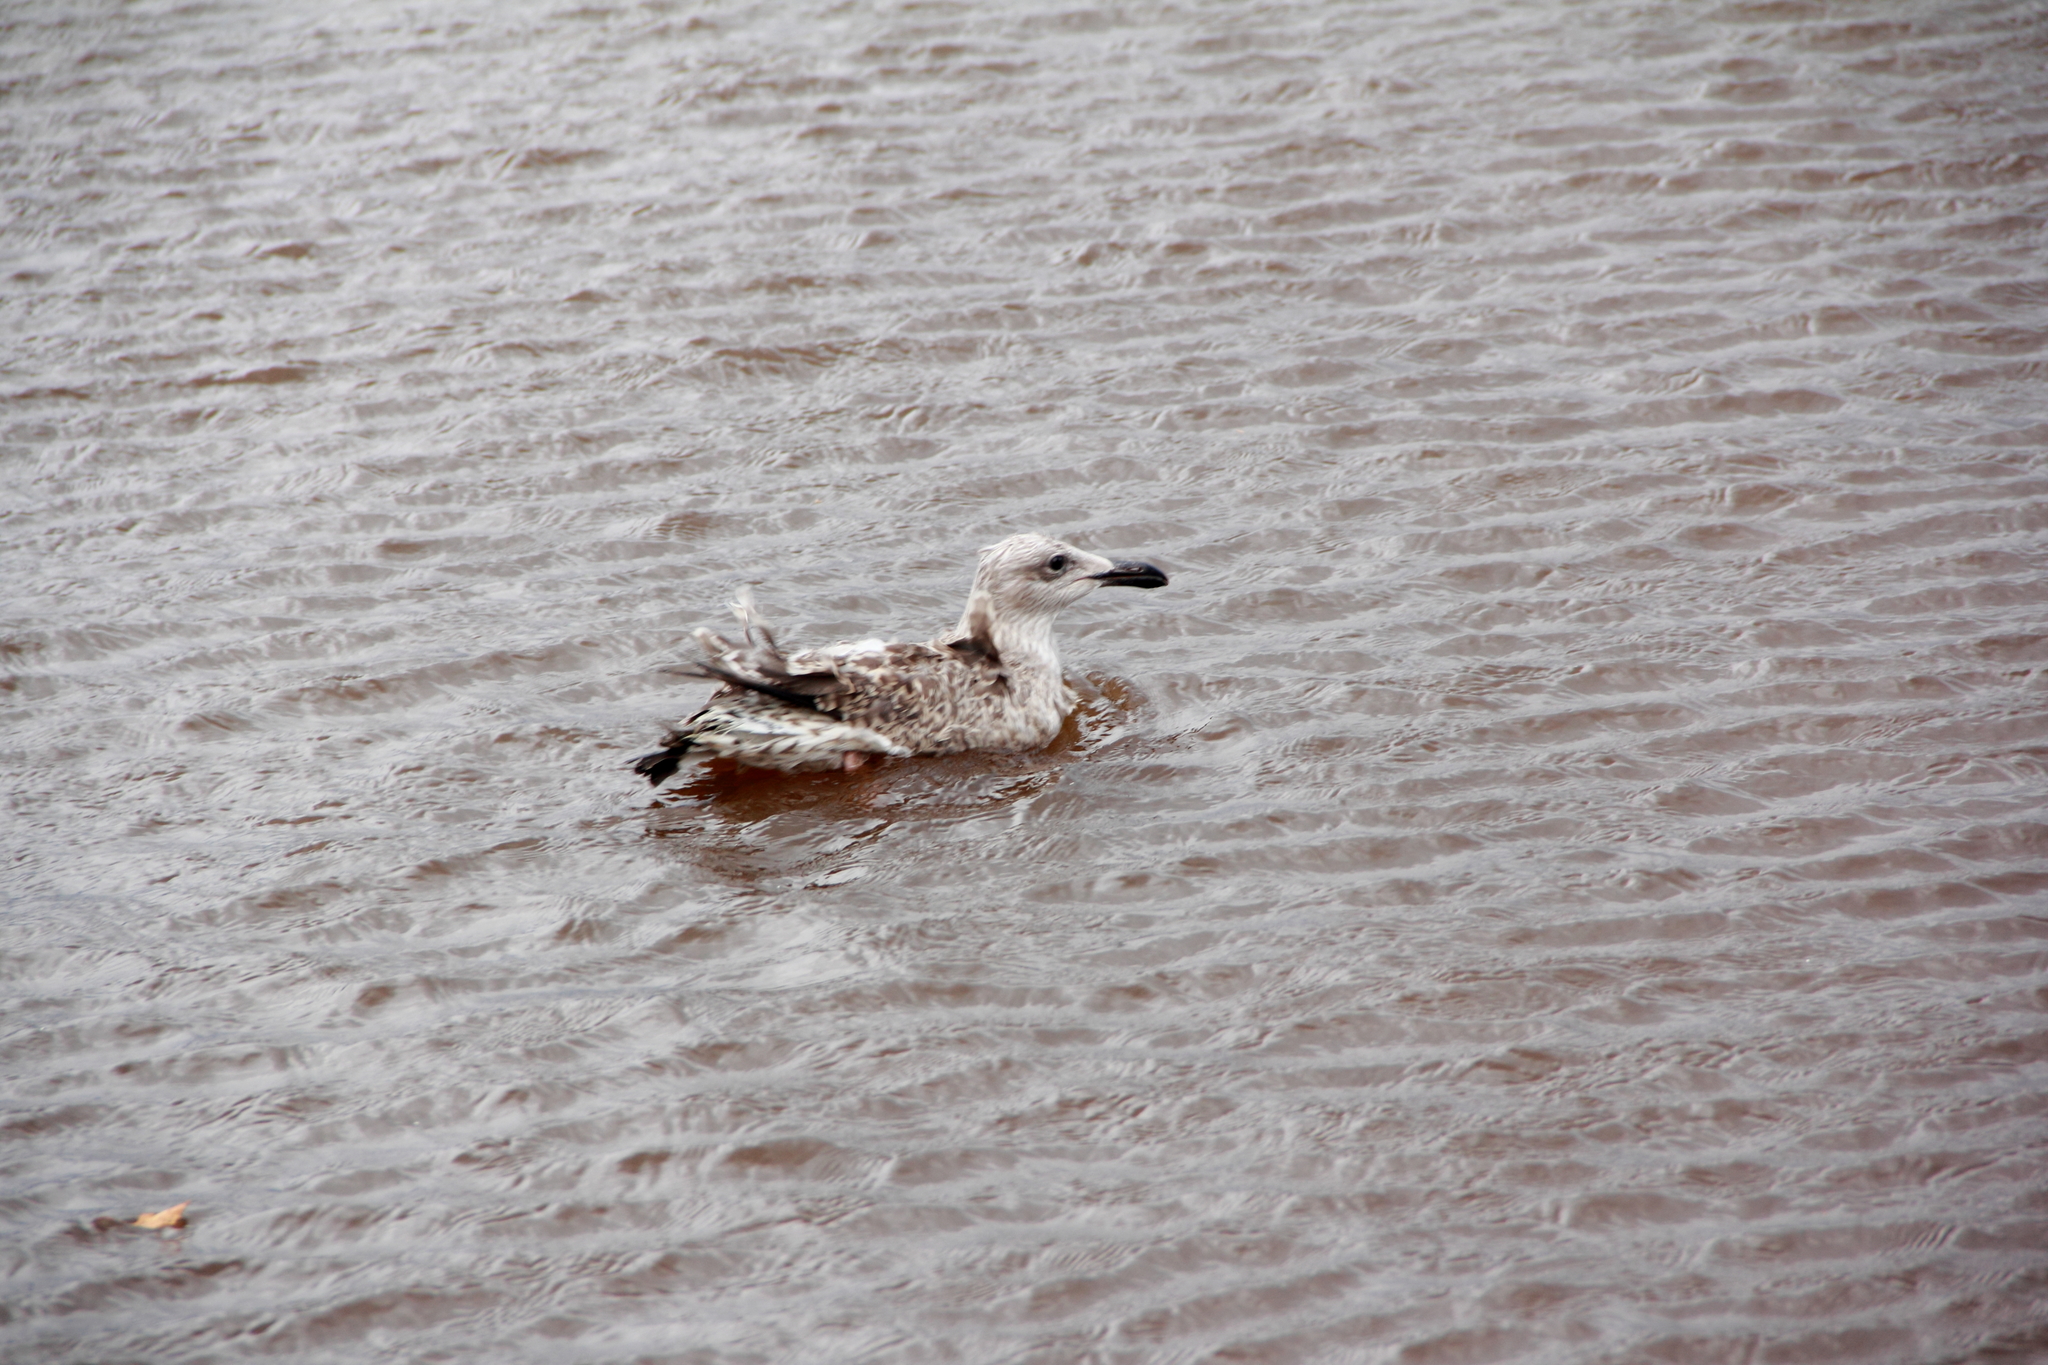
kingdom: Animalia
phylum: Chordata
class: Aves
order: Charadriiformes
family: Laridae
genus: Larus
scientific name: Larus argentatus
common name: Herring gull
